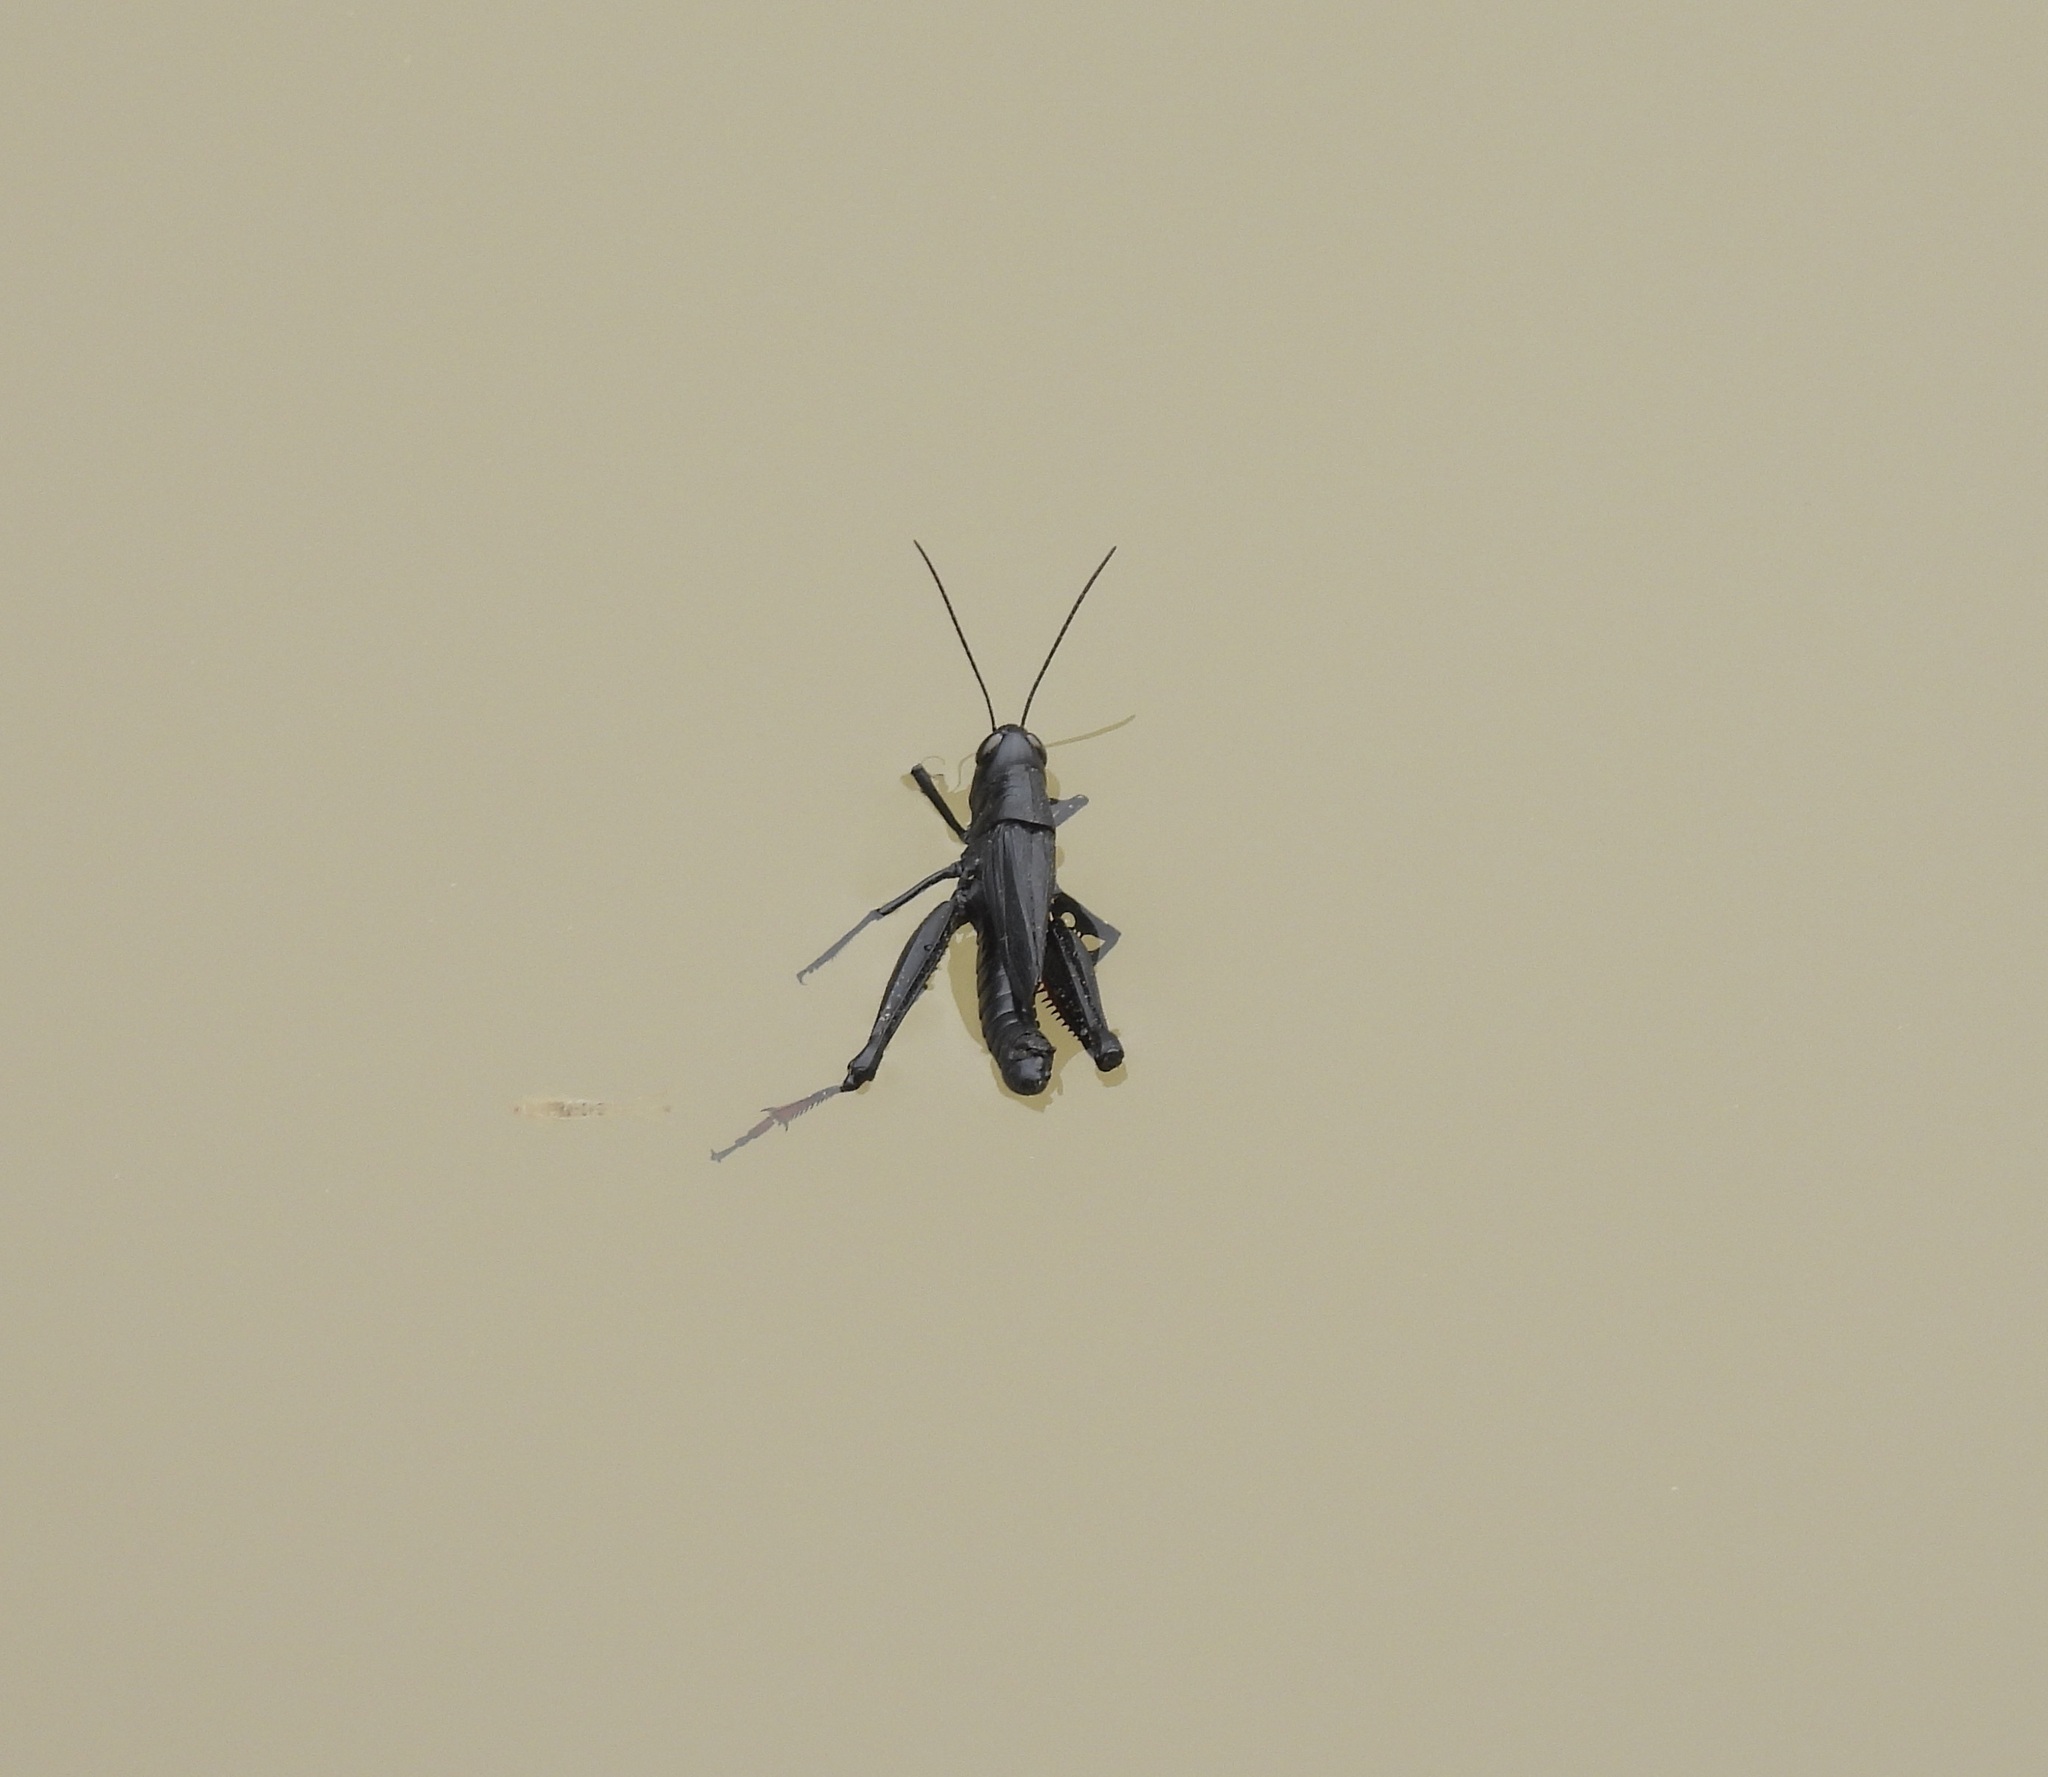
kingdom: Animalia
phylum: Arthropoda
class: Insecta
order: Orthoptera
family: Acrididae
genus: Boopedon
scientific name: Boopedon nubilum
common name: Ebony grasshopper
